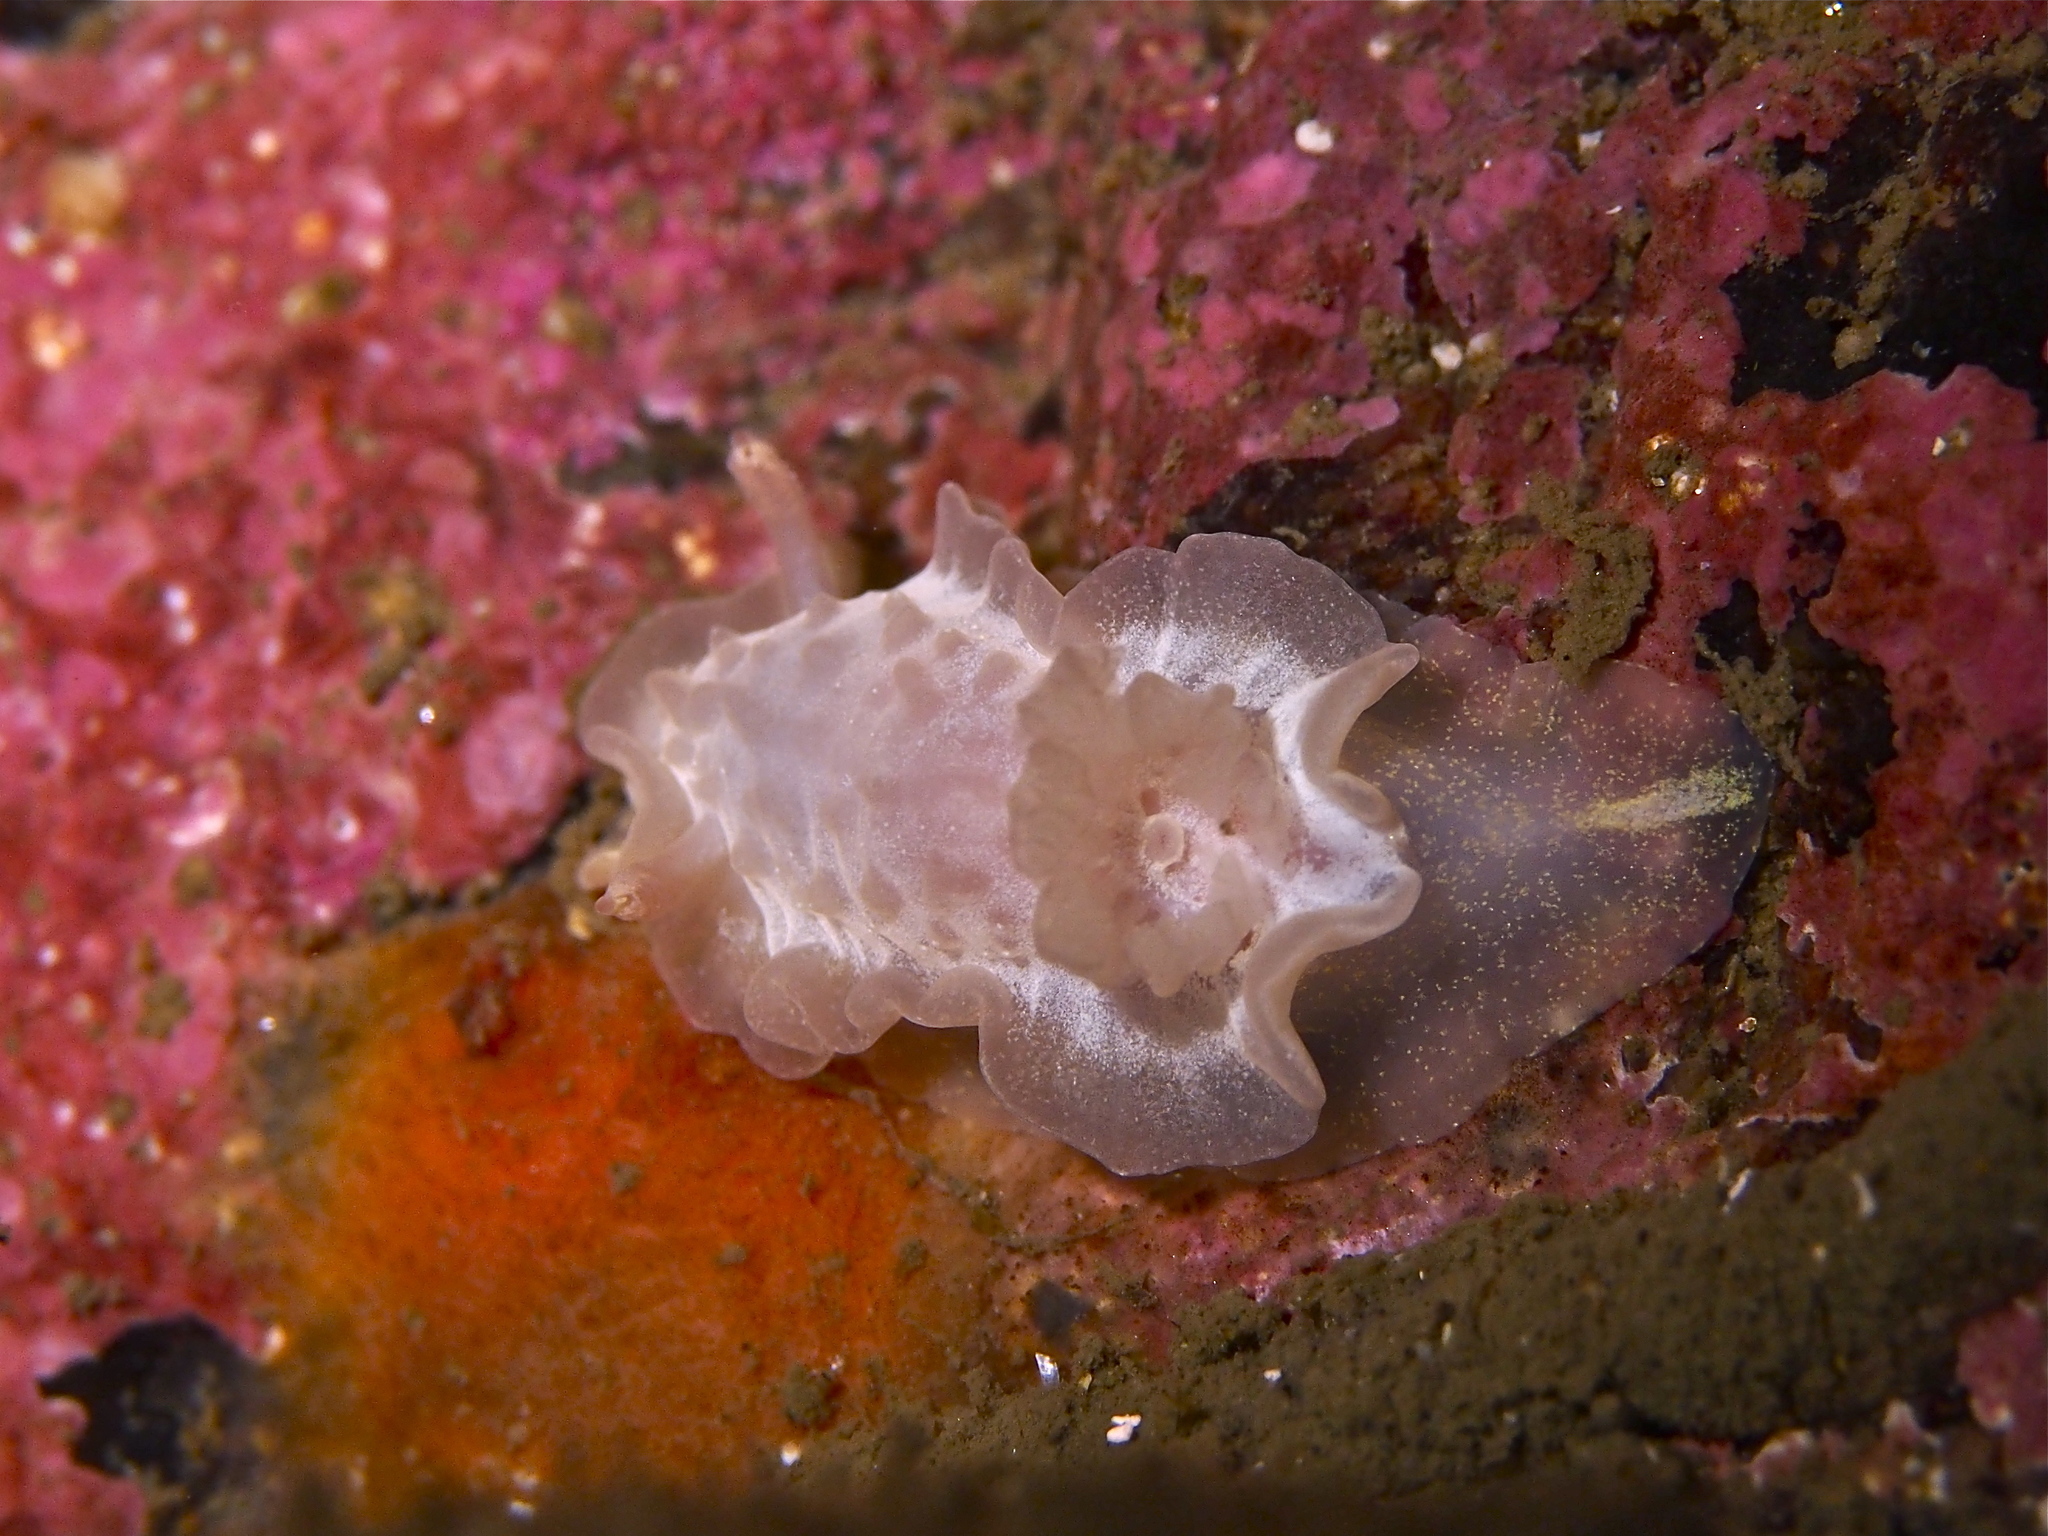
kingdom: Animalia
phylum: Mollusca
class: Gastropoda
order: Nudibranchia
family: Goniodorididae
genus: Okenia
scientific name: Okenia
